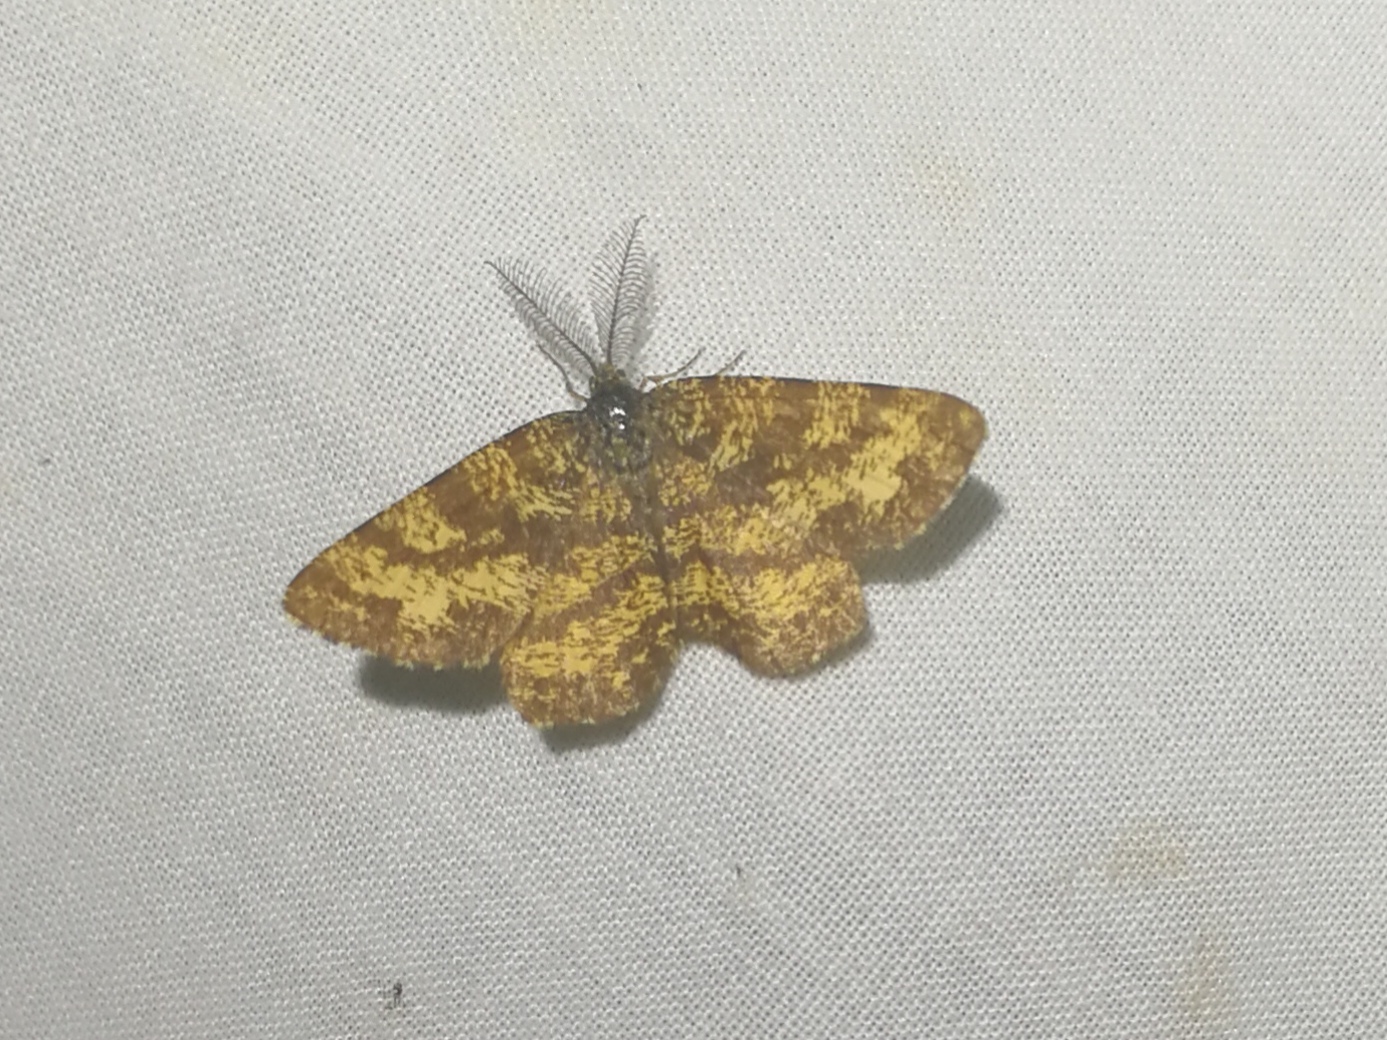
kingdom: Animalia
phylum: Arthropoda
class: Insecta
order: Lepidoptera
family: Geometridae
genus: Ematurga
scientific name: Ematurga atomaria
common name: Common heath
